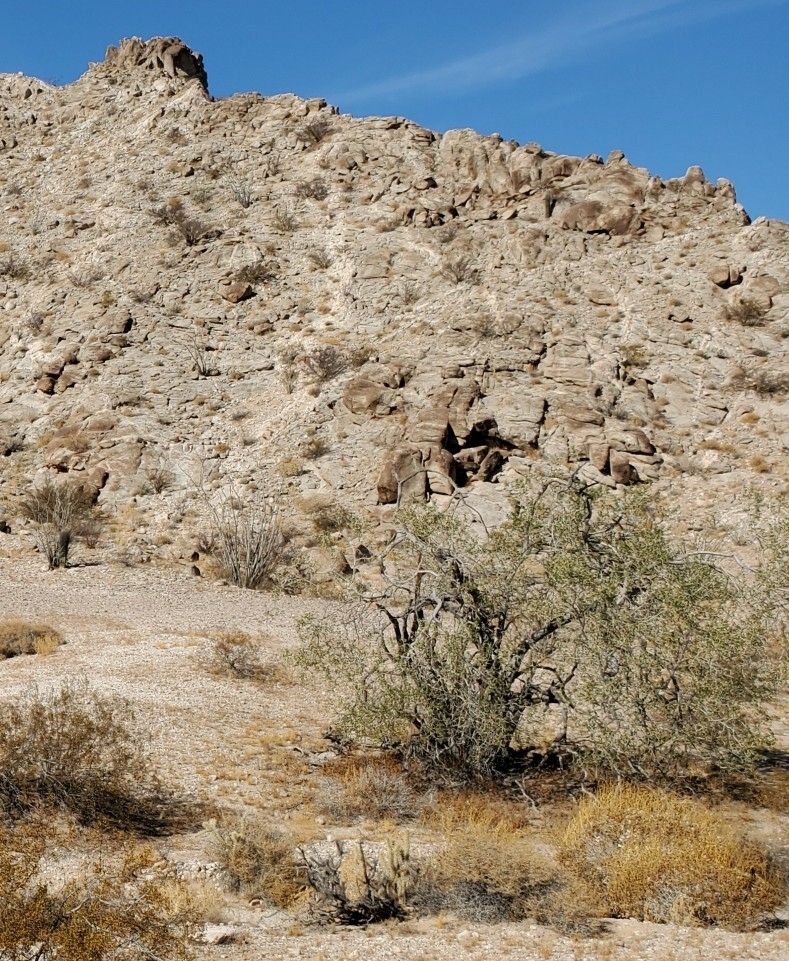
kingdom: Plantae
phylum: Tracheophyta
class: Magnoliopsida
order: Fabales
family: Fabaceae
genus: Olneya
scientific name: Olneya tesota
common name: Desert ironwood
